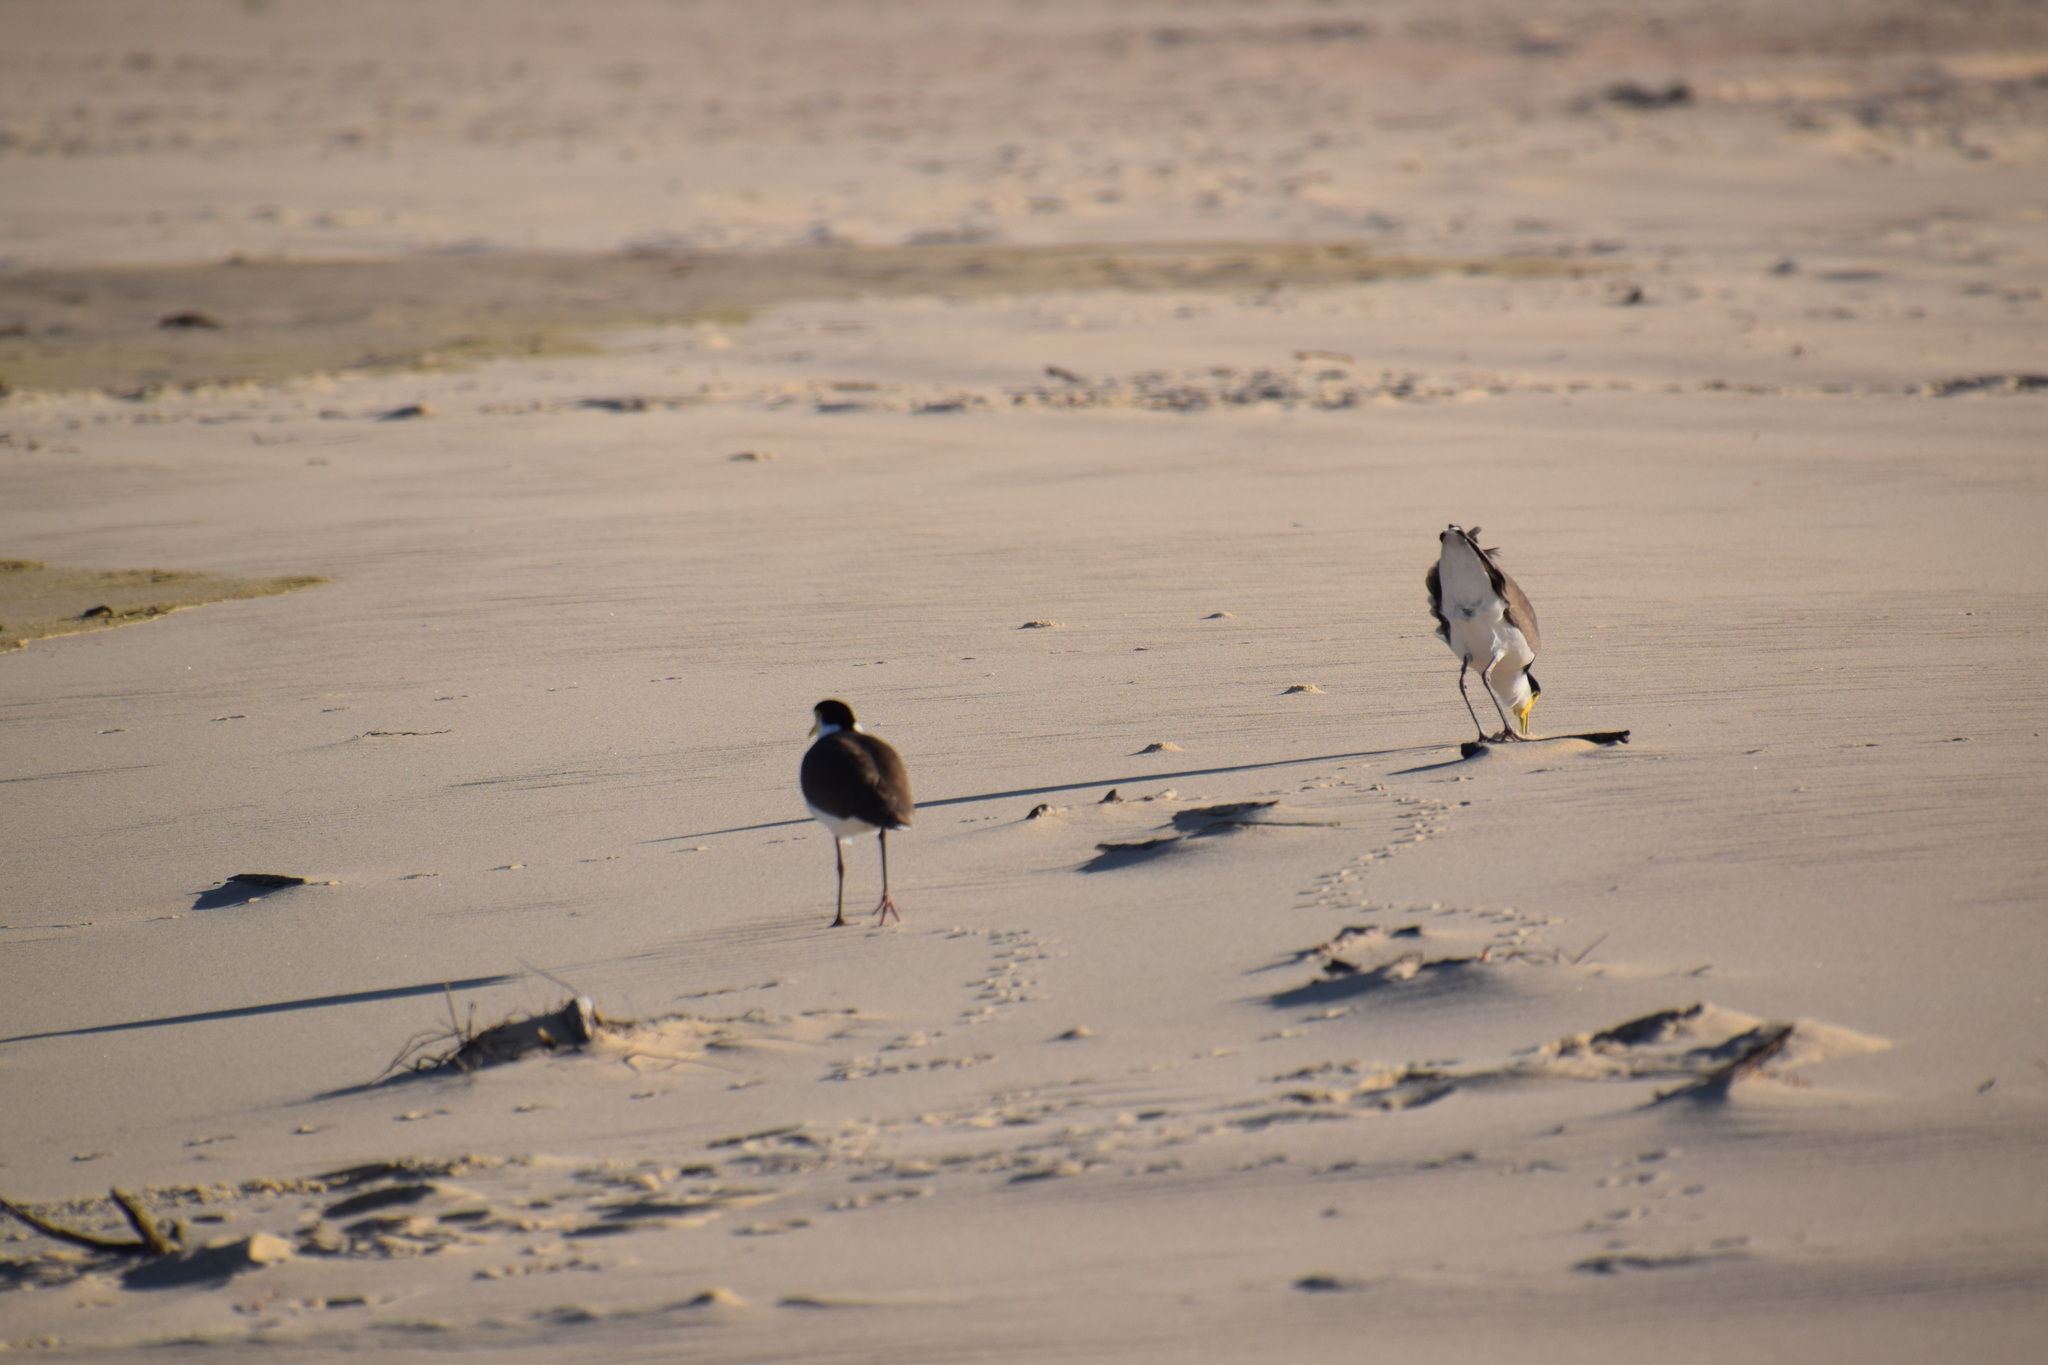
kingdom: Animalia
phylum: Chordata
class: Aves
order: Charadriiformes
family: Charadriidae
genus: Vanellus
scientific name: Vanellus miles
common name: Masked lapwing
